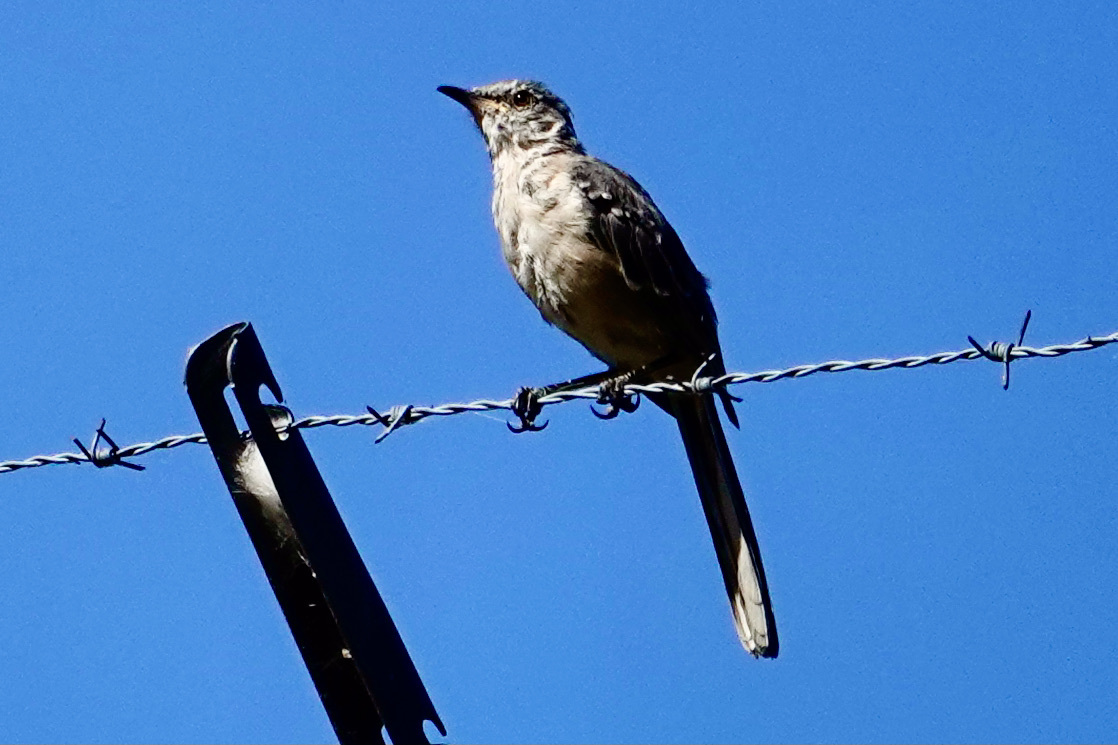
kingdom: Animalia
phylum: Chordata
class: Aves
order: Passeriformes
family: Mimidae
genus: Mimus
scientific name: Mimus polyglottos
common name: Northern mockingbird
